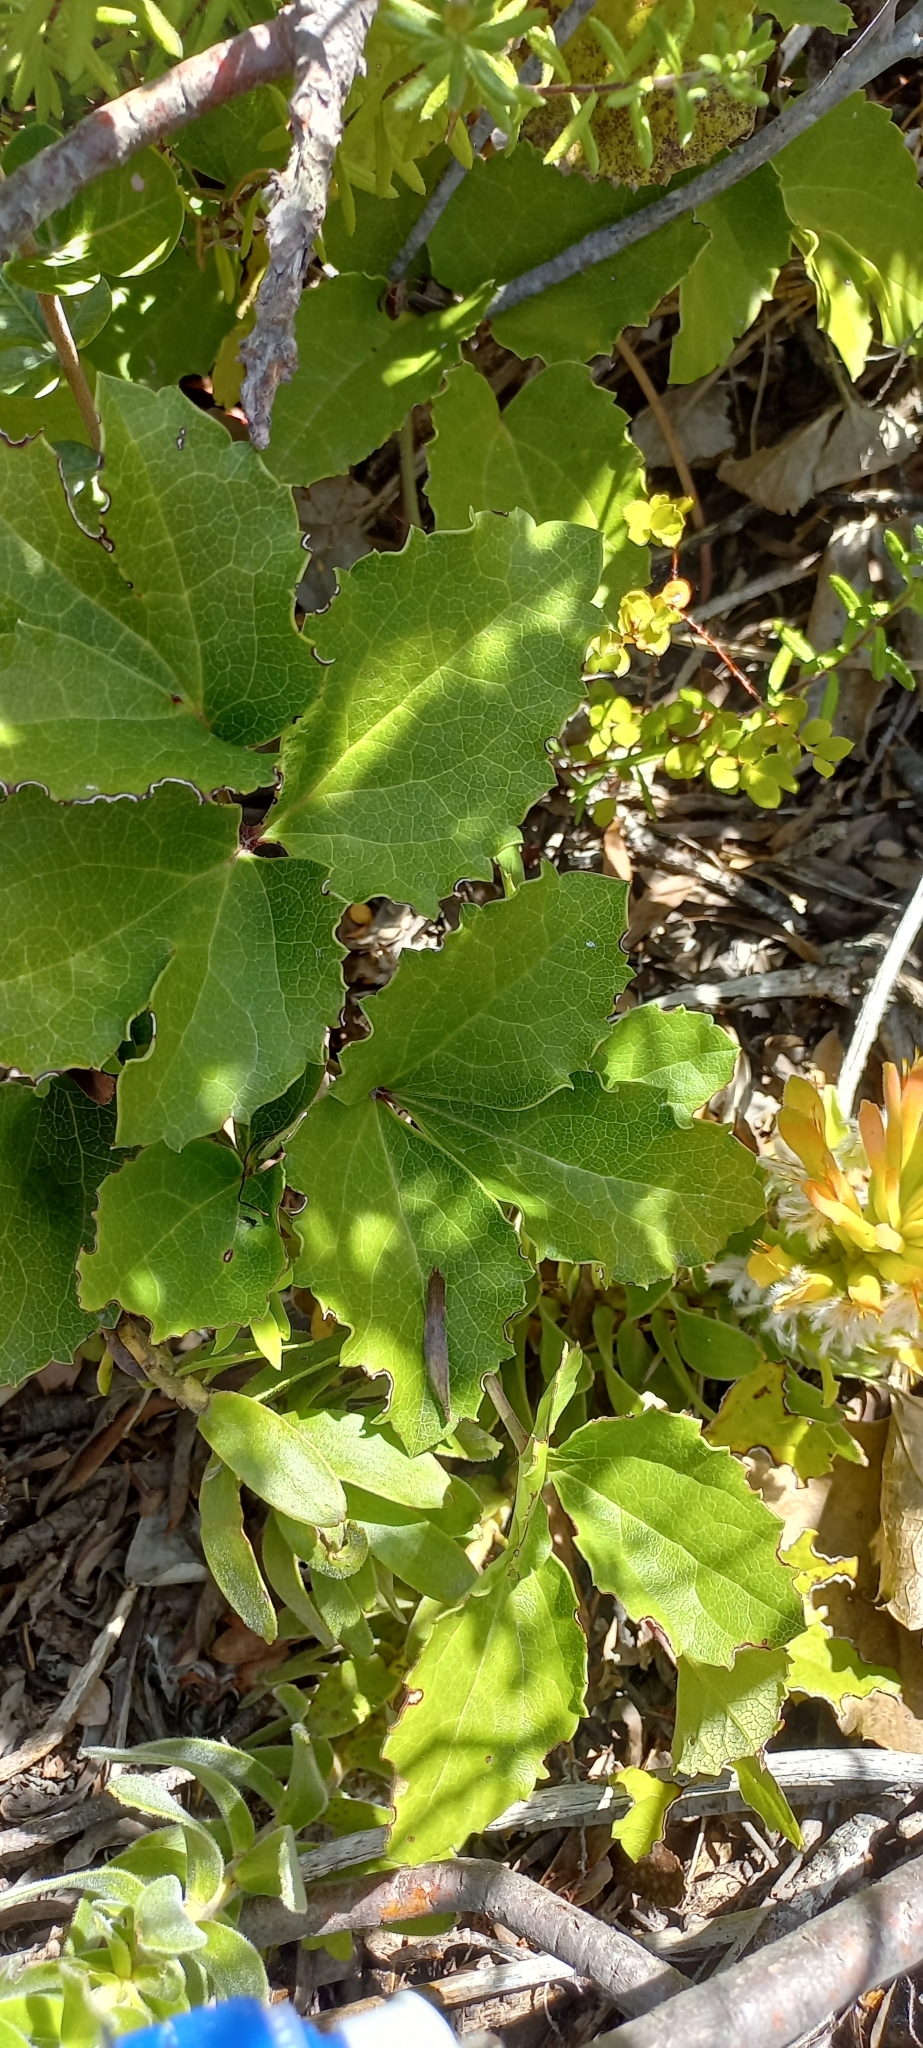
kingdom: Plantae
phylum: Tracheophyta
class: Magnoliopsida
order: Ranunculales
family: Ranunculaceae
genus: Knowltonia
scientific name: Knowltonia vesicatoria
